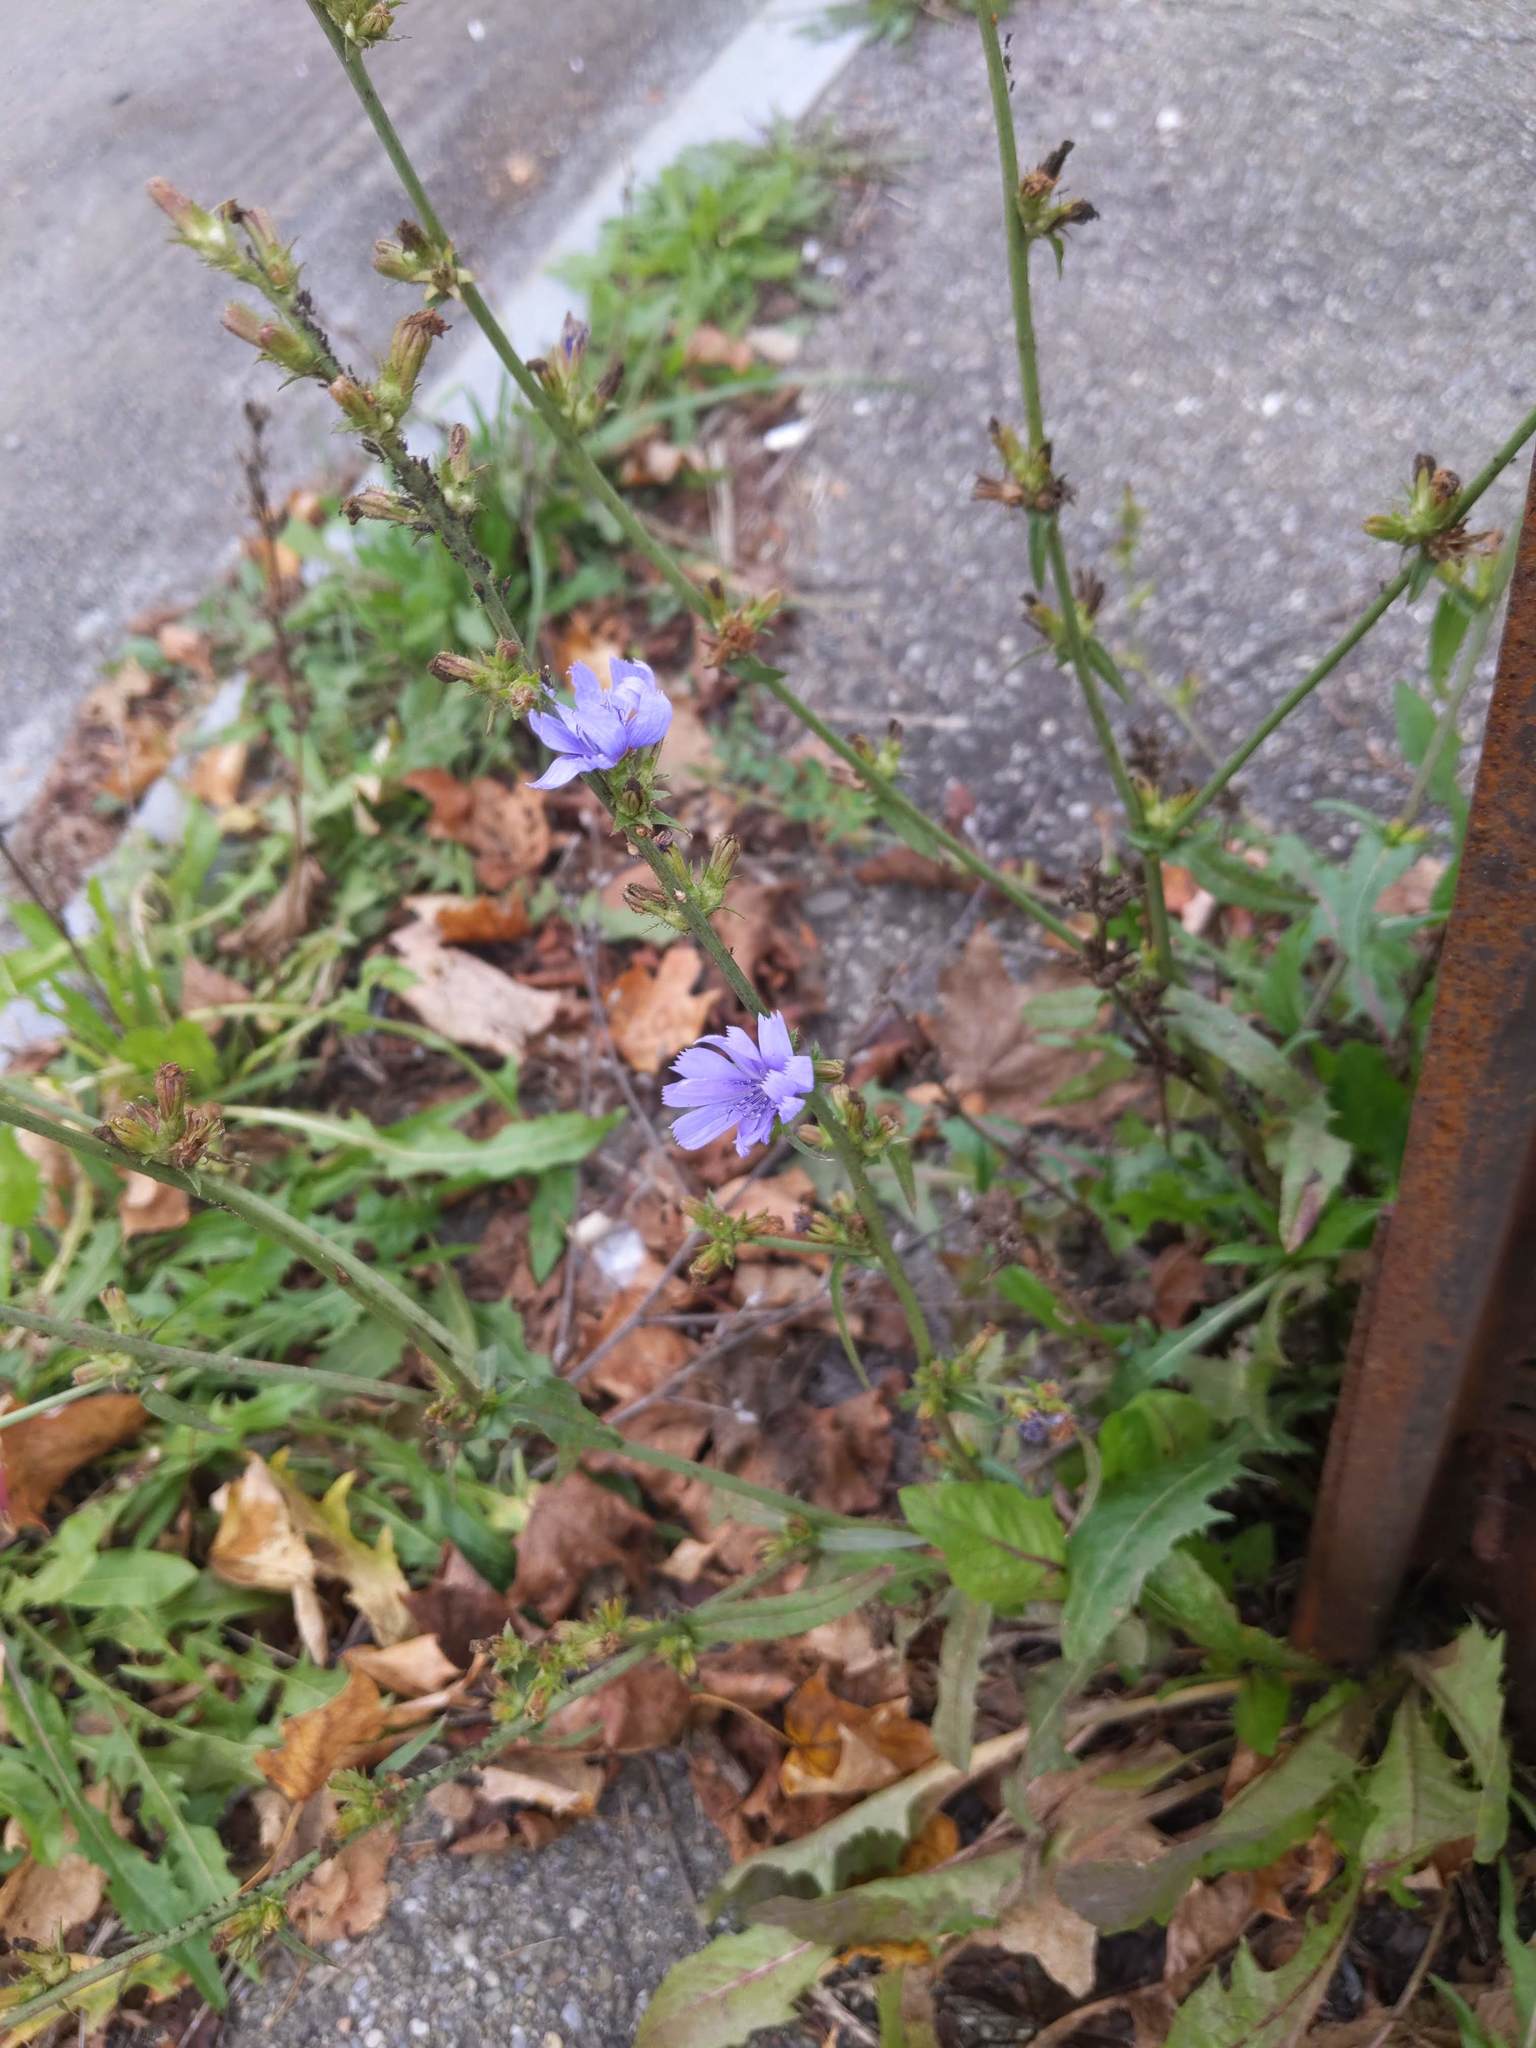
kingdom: Plantae
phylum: Tracheophyta
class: Magnoliopsida
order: Asterales
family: Asteraceae
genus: Cichorium
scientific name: Cichorium intybus
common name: Chicory
